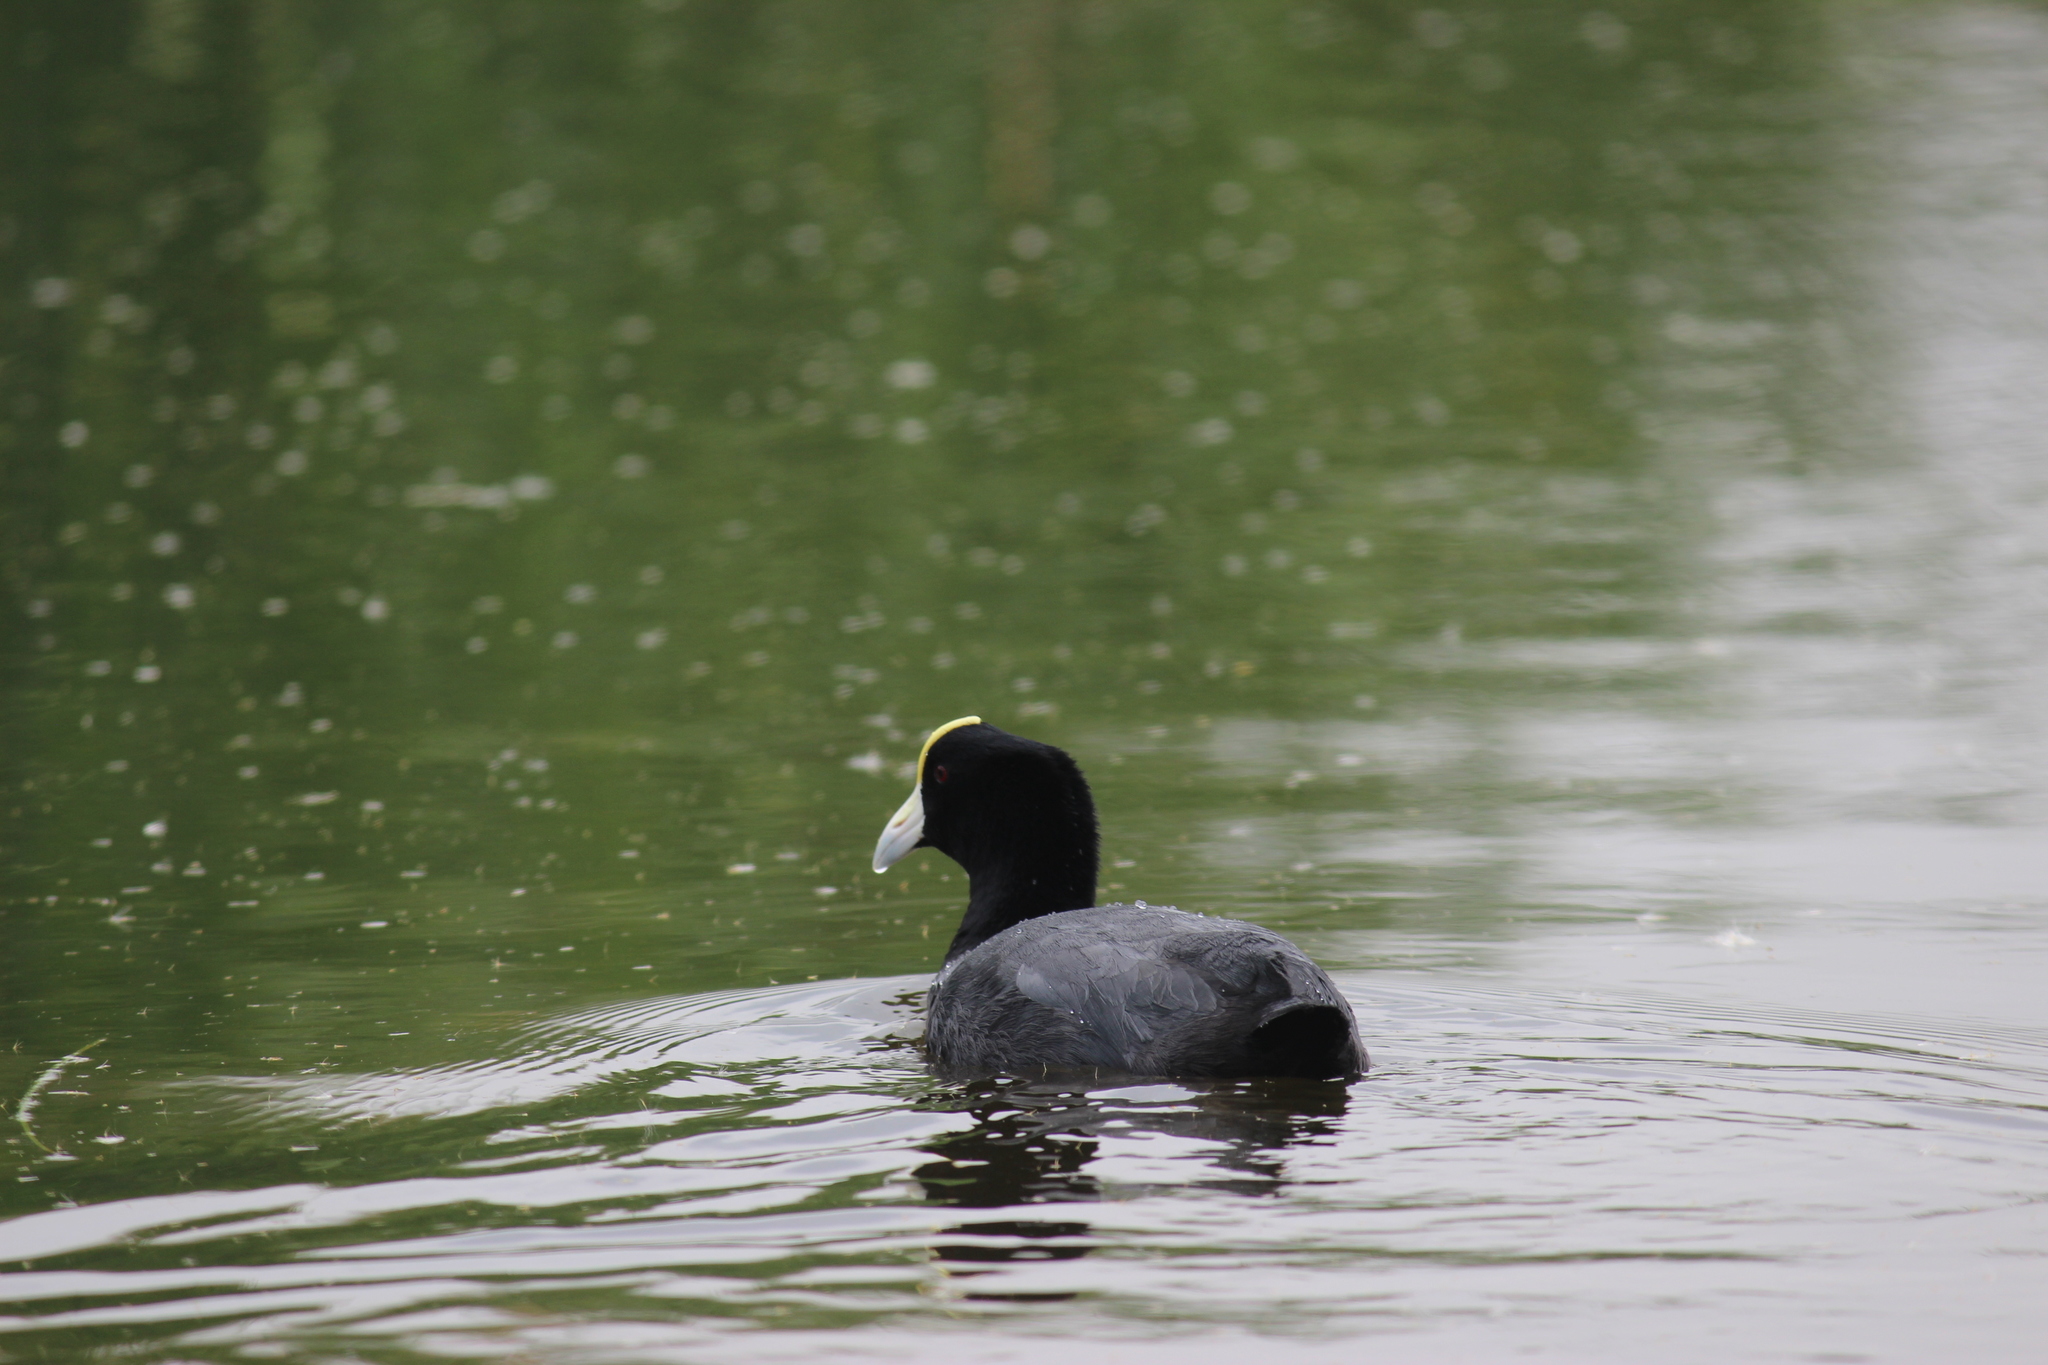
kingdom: Animalia
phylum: Chordata
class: Aves
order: Gruiformes
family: Rallidae
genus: Fulica
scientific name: Fulica ardesiaca
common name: Andean coot
